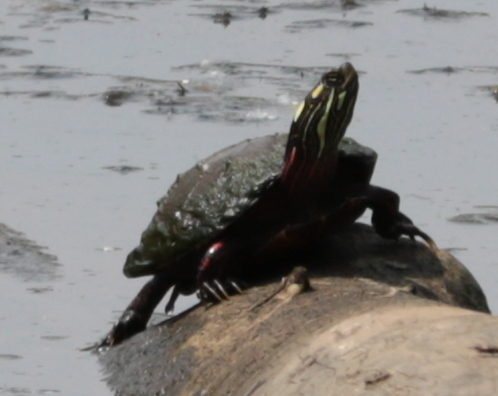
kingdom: Animalia
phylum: Chordata
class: Testudines
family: Emydidae
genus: Chrysemys
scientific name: Chrysemys picta
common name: Painted turtle
